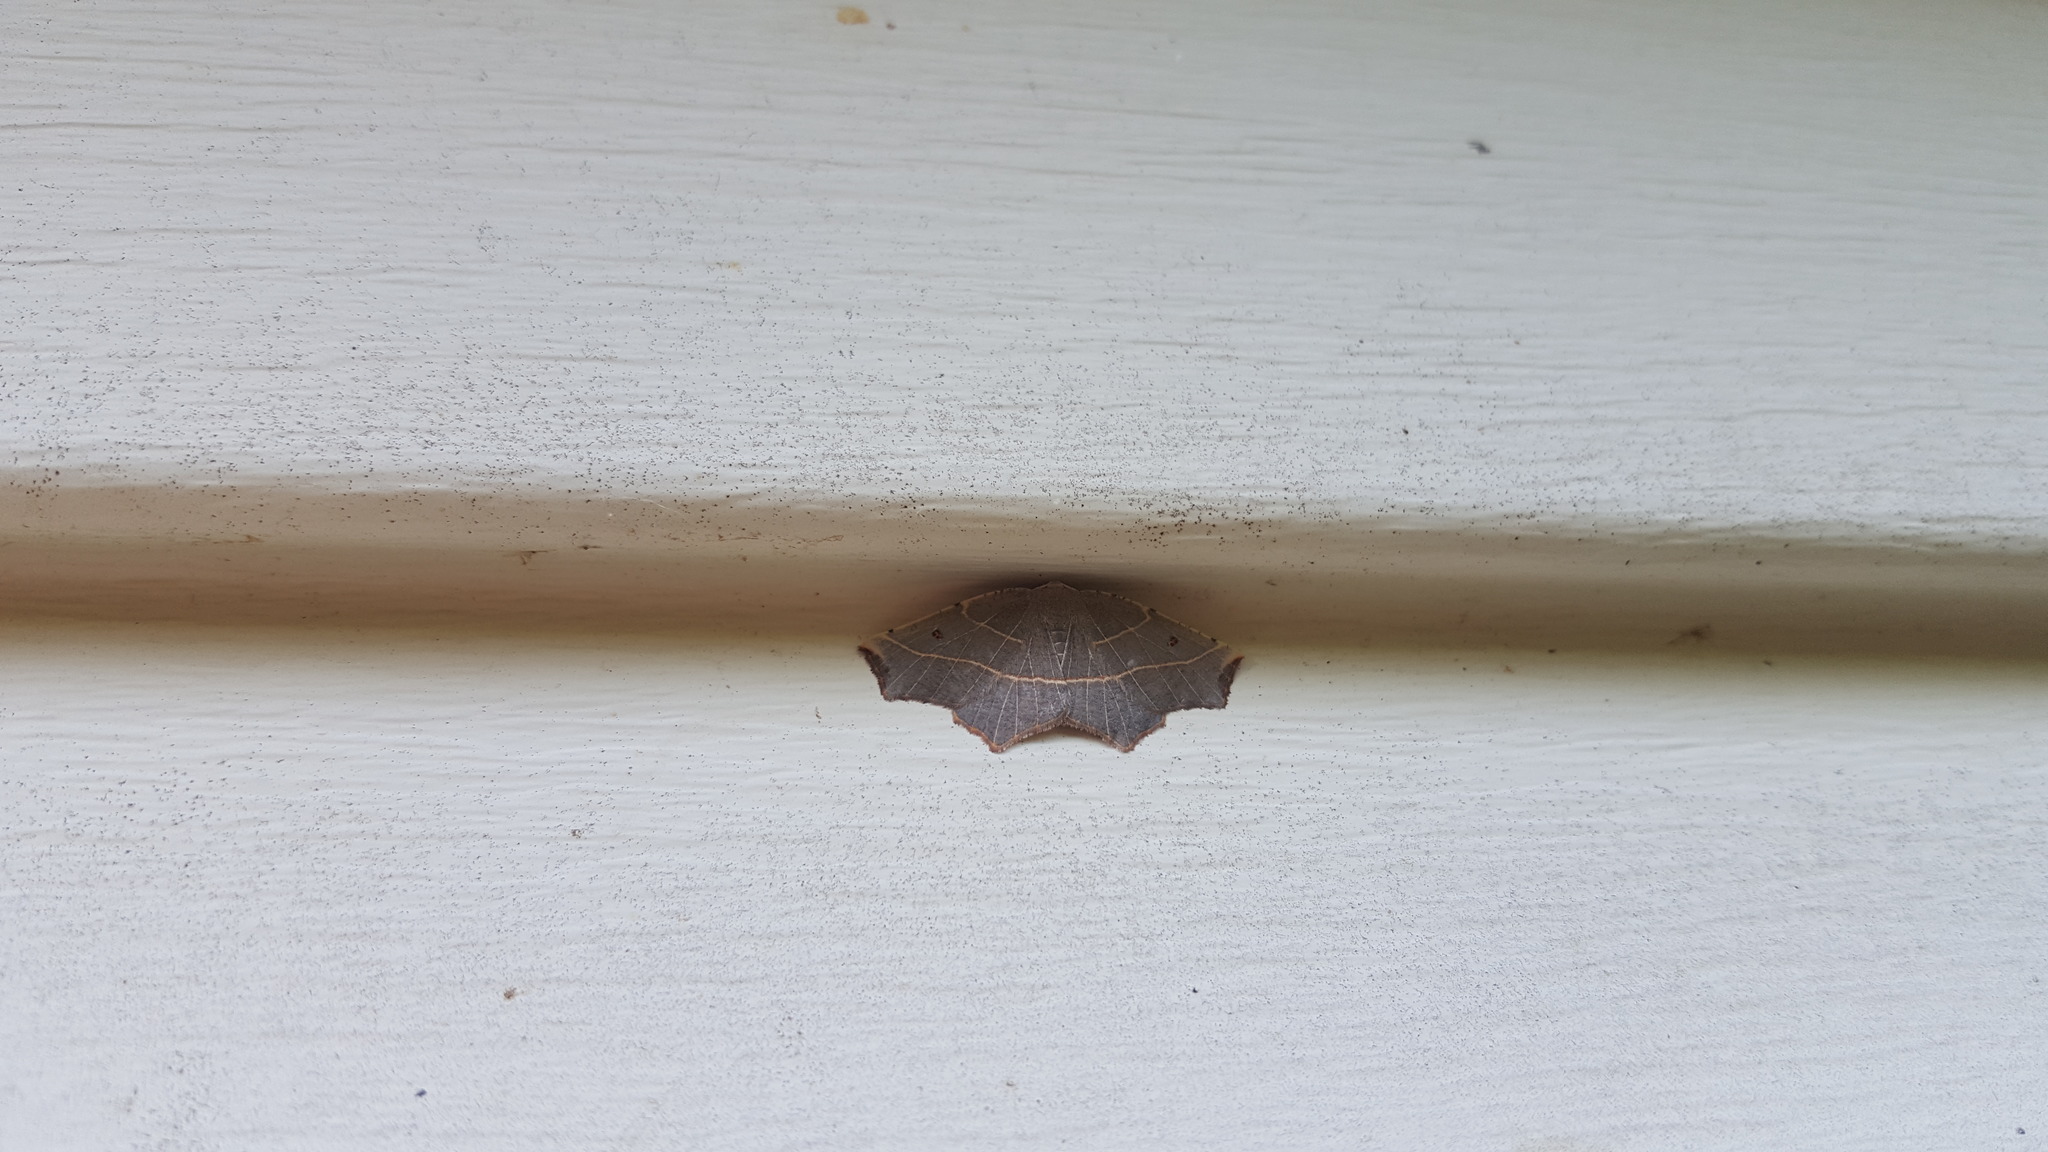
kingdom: Animalia
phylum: Arthropoda
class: Insecta
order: Lepidoptera
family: Geometridae
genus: Metanema
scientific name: Metanema inatomaria
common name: Pale metanema
